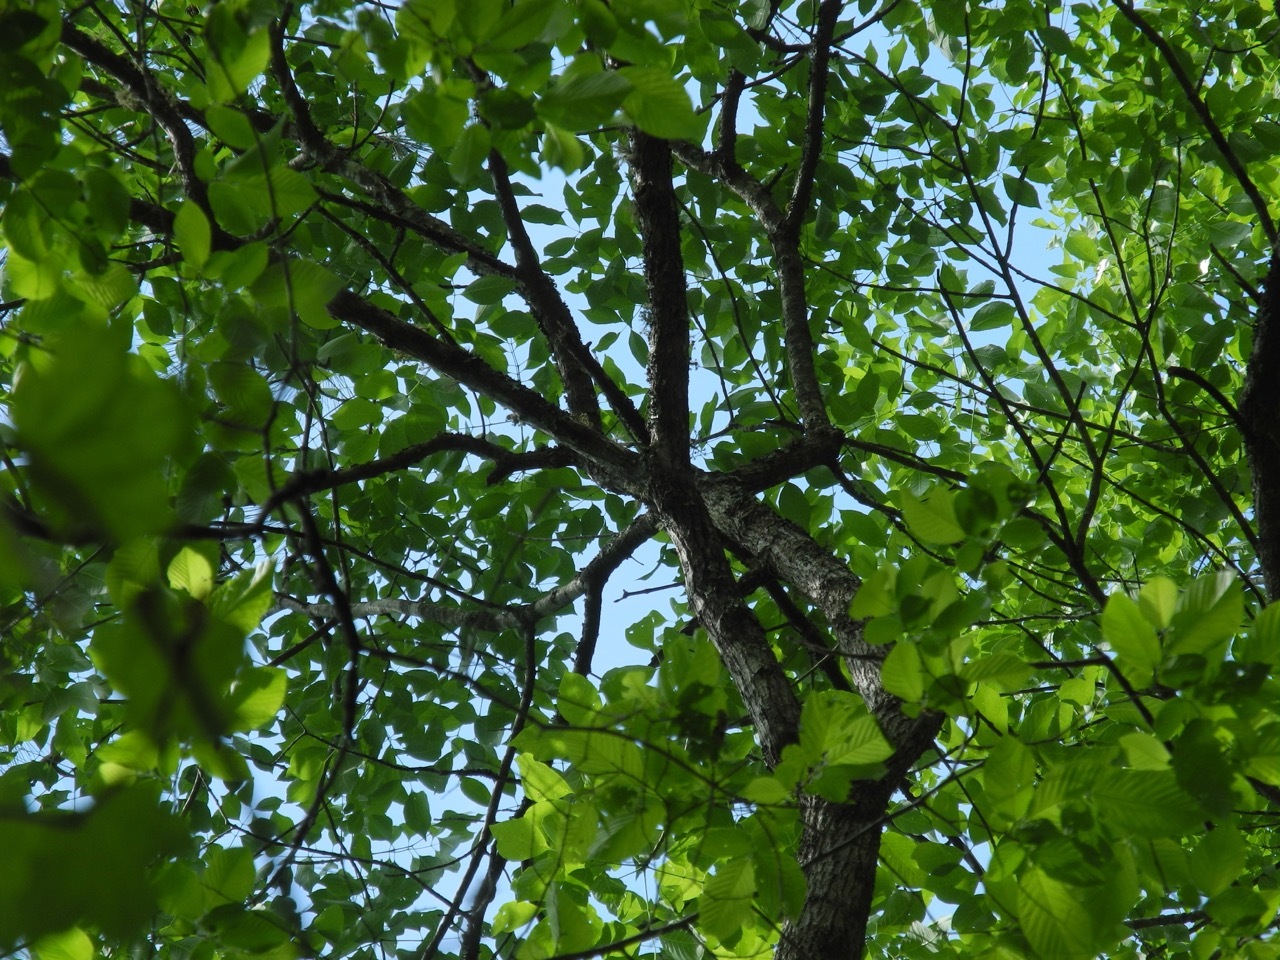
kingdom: Plantae
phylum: Tracheophyta
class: Magnoliopsida
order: Lamiales
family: Oleaceae
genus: Fraxinus
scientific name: Fraxinus pennsylvanica
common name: Green ash
